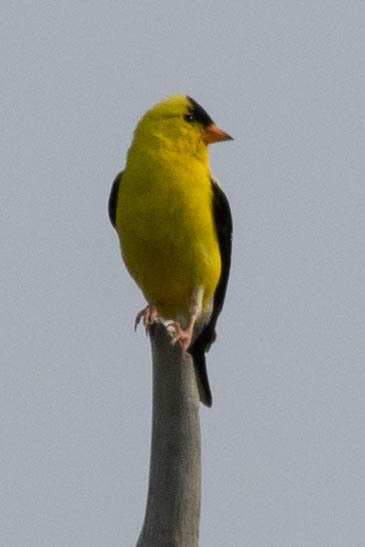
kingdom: Animalia
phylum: Chordata
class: Aves
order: Passeriformes
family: Fringillidae
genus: Spinus
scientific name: Spinus tristis
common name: American goldfinch
